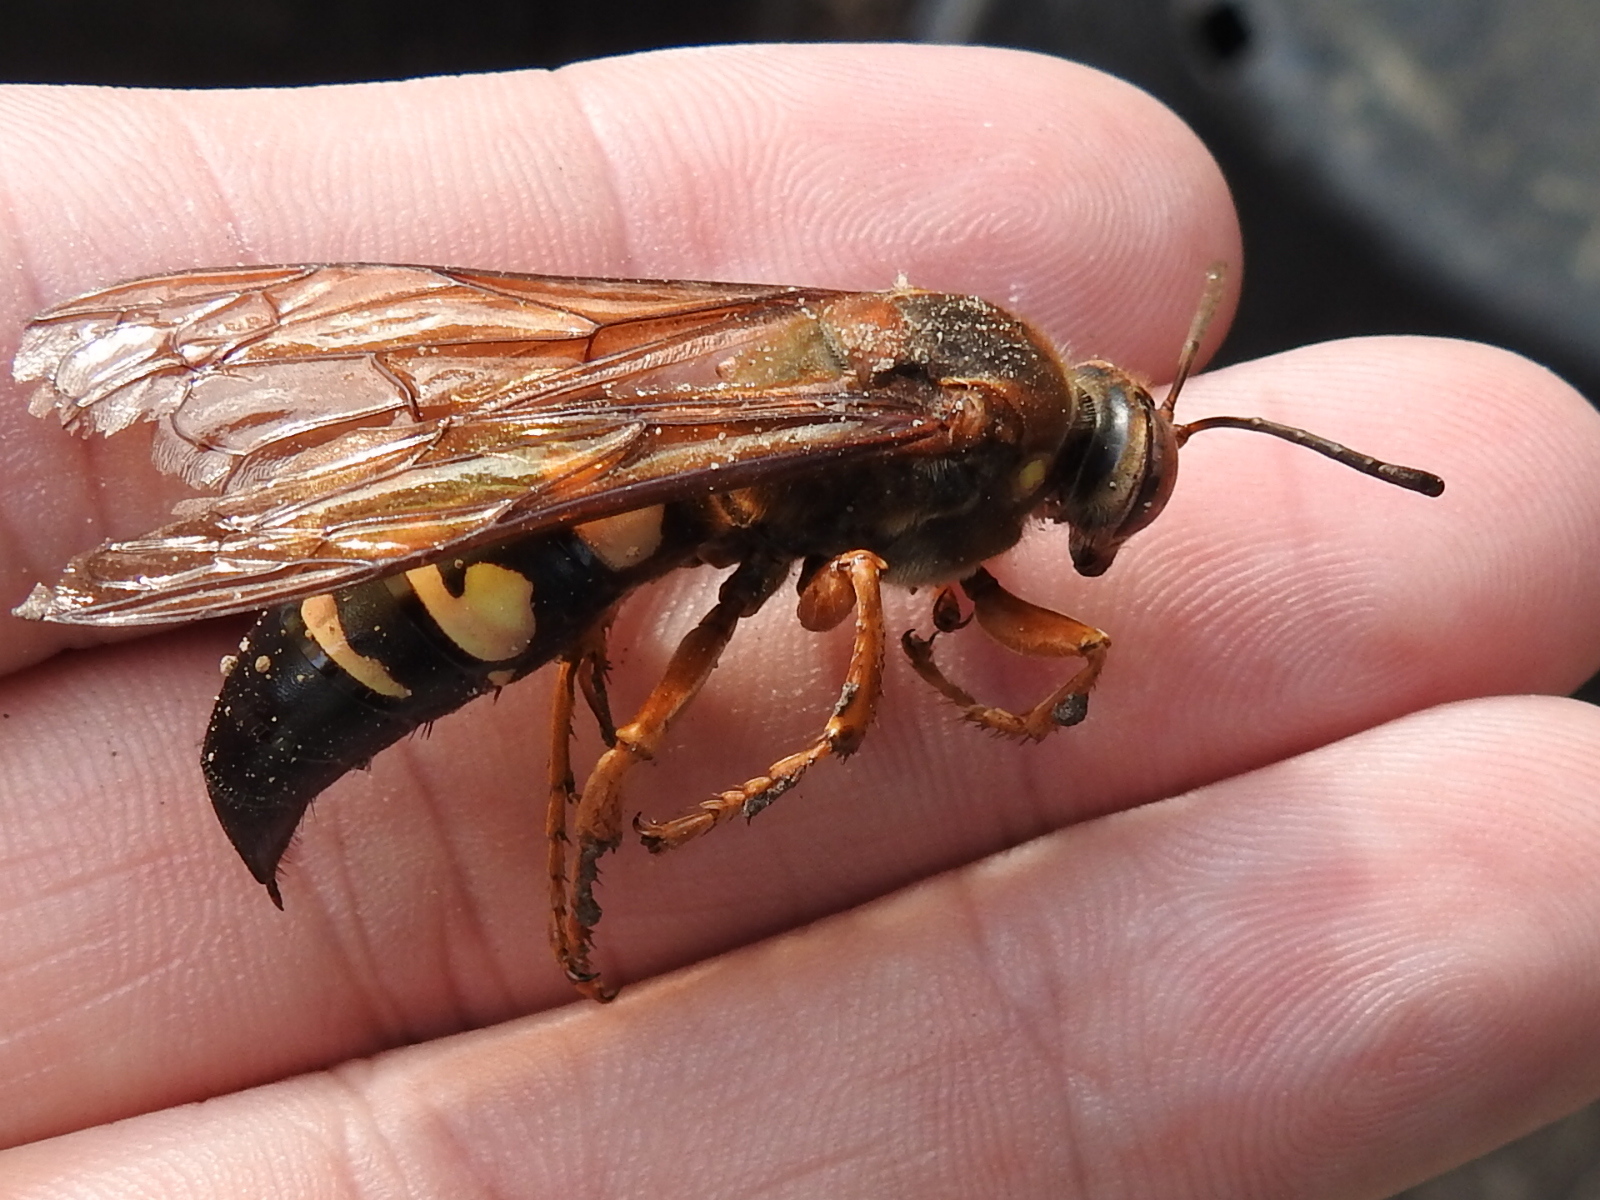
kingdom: Animalia
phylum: Arthropoda
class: Insecta
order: Hymenoptera
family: Crabronidae
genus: Sphecius
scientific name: Sphecius speciosus
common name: Cicada killer
